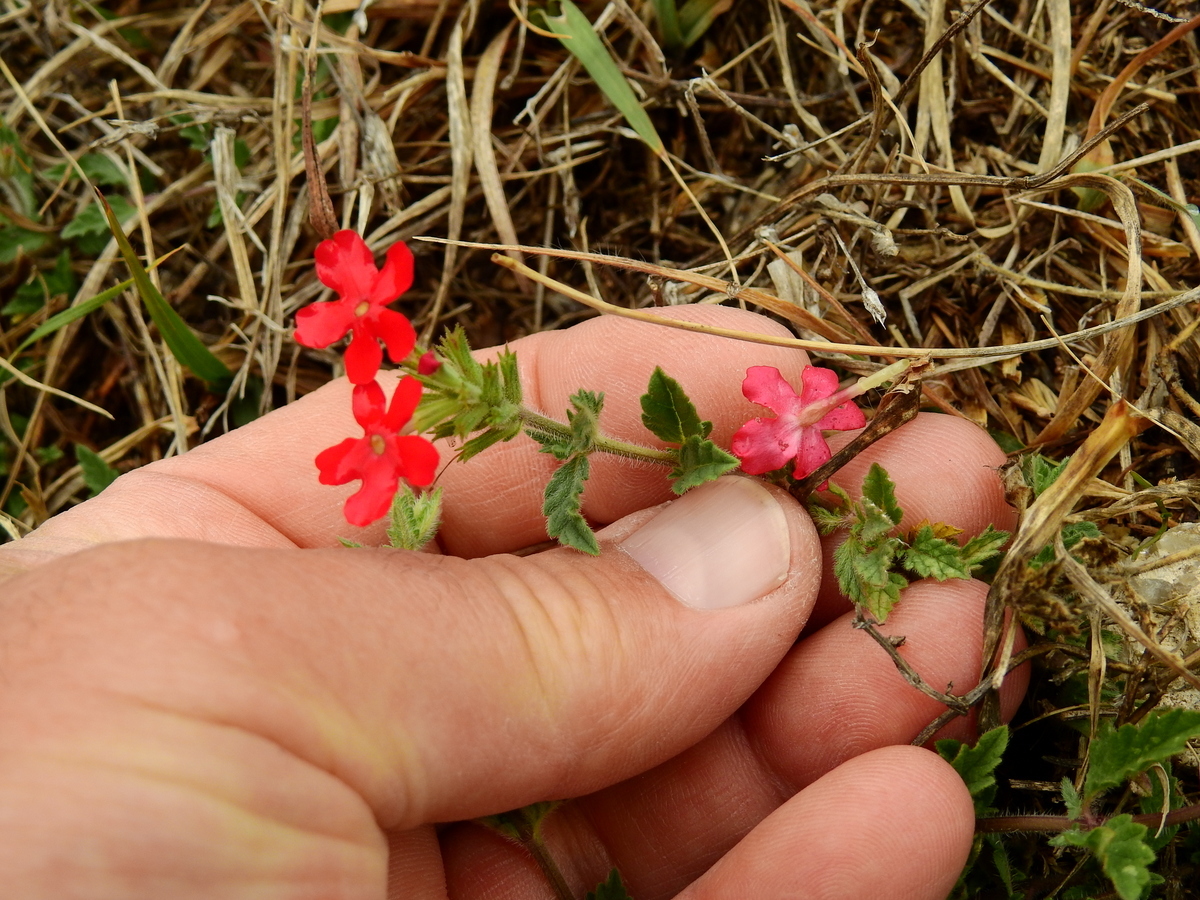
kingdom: Plantae
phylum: Tracheophyta
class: Magnoliopsida
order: Lamiales
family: Verbenaceae
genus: Verbena
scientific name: Verbena peruviana
